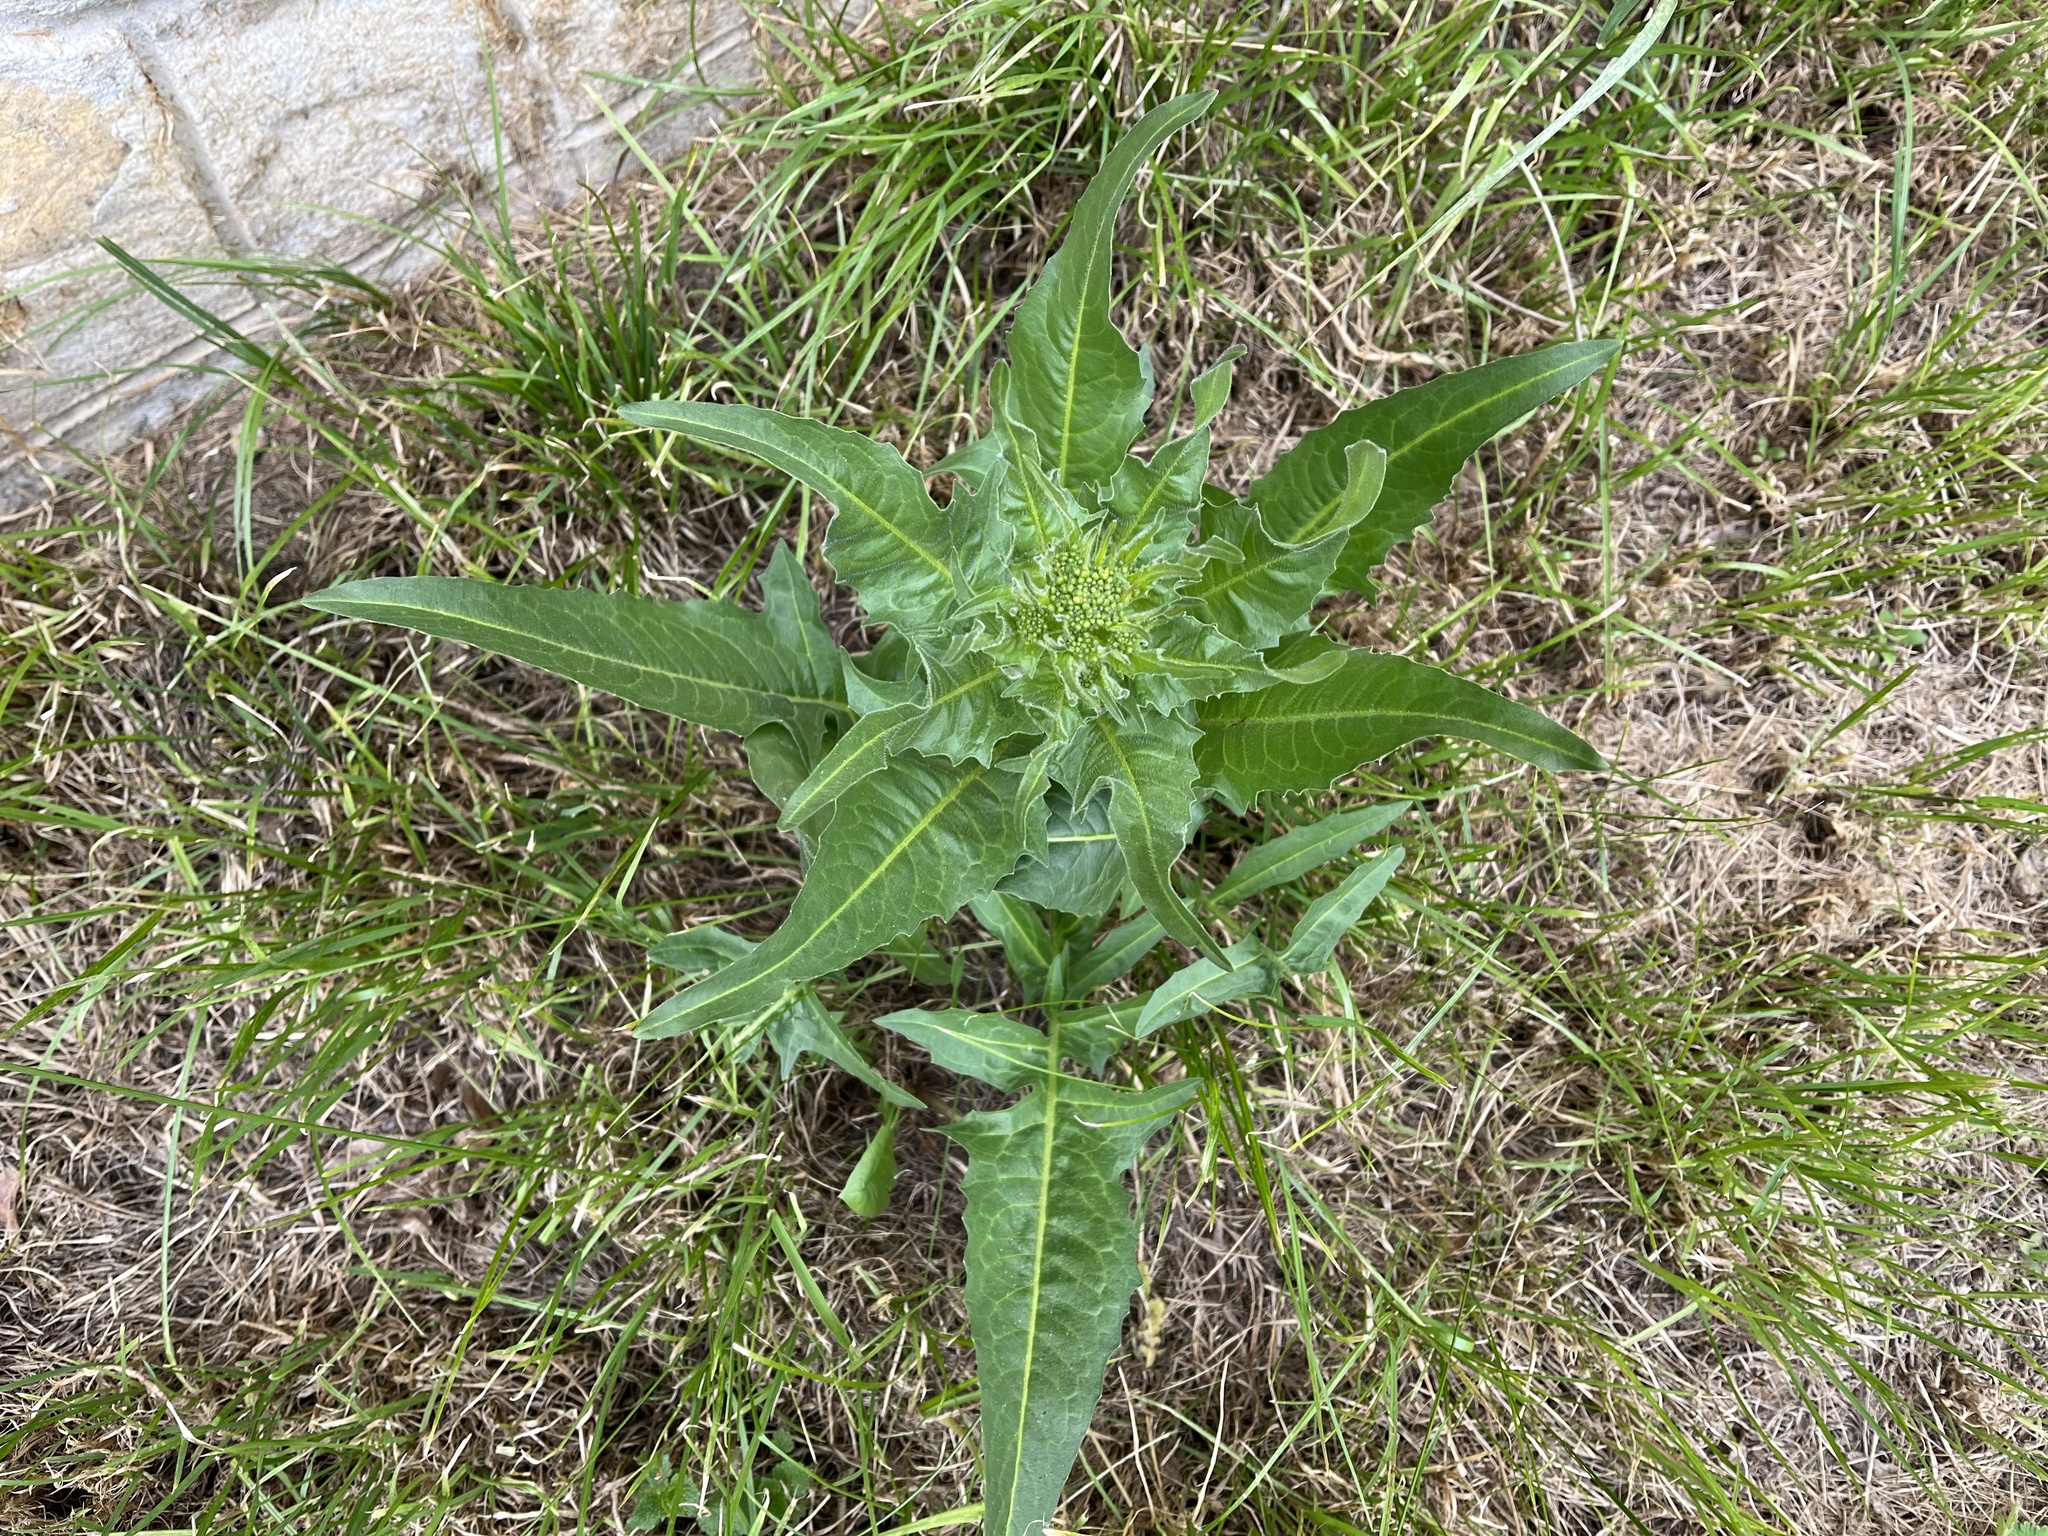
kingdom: Plantae
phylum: Tracheophyta
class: Magnoliopsida
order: Brassicales
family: Brassicaceae
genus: Bunias
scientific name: Bunias orientalis
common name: Warty-cabbage
